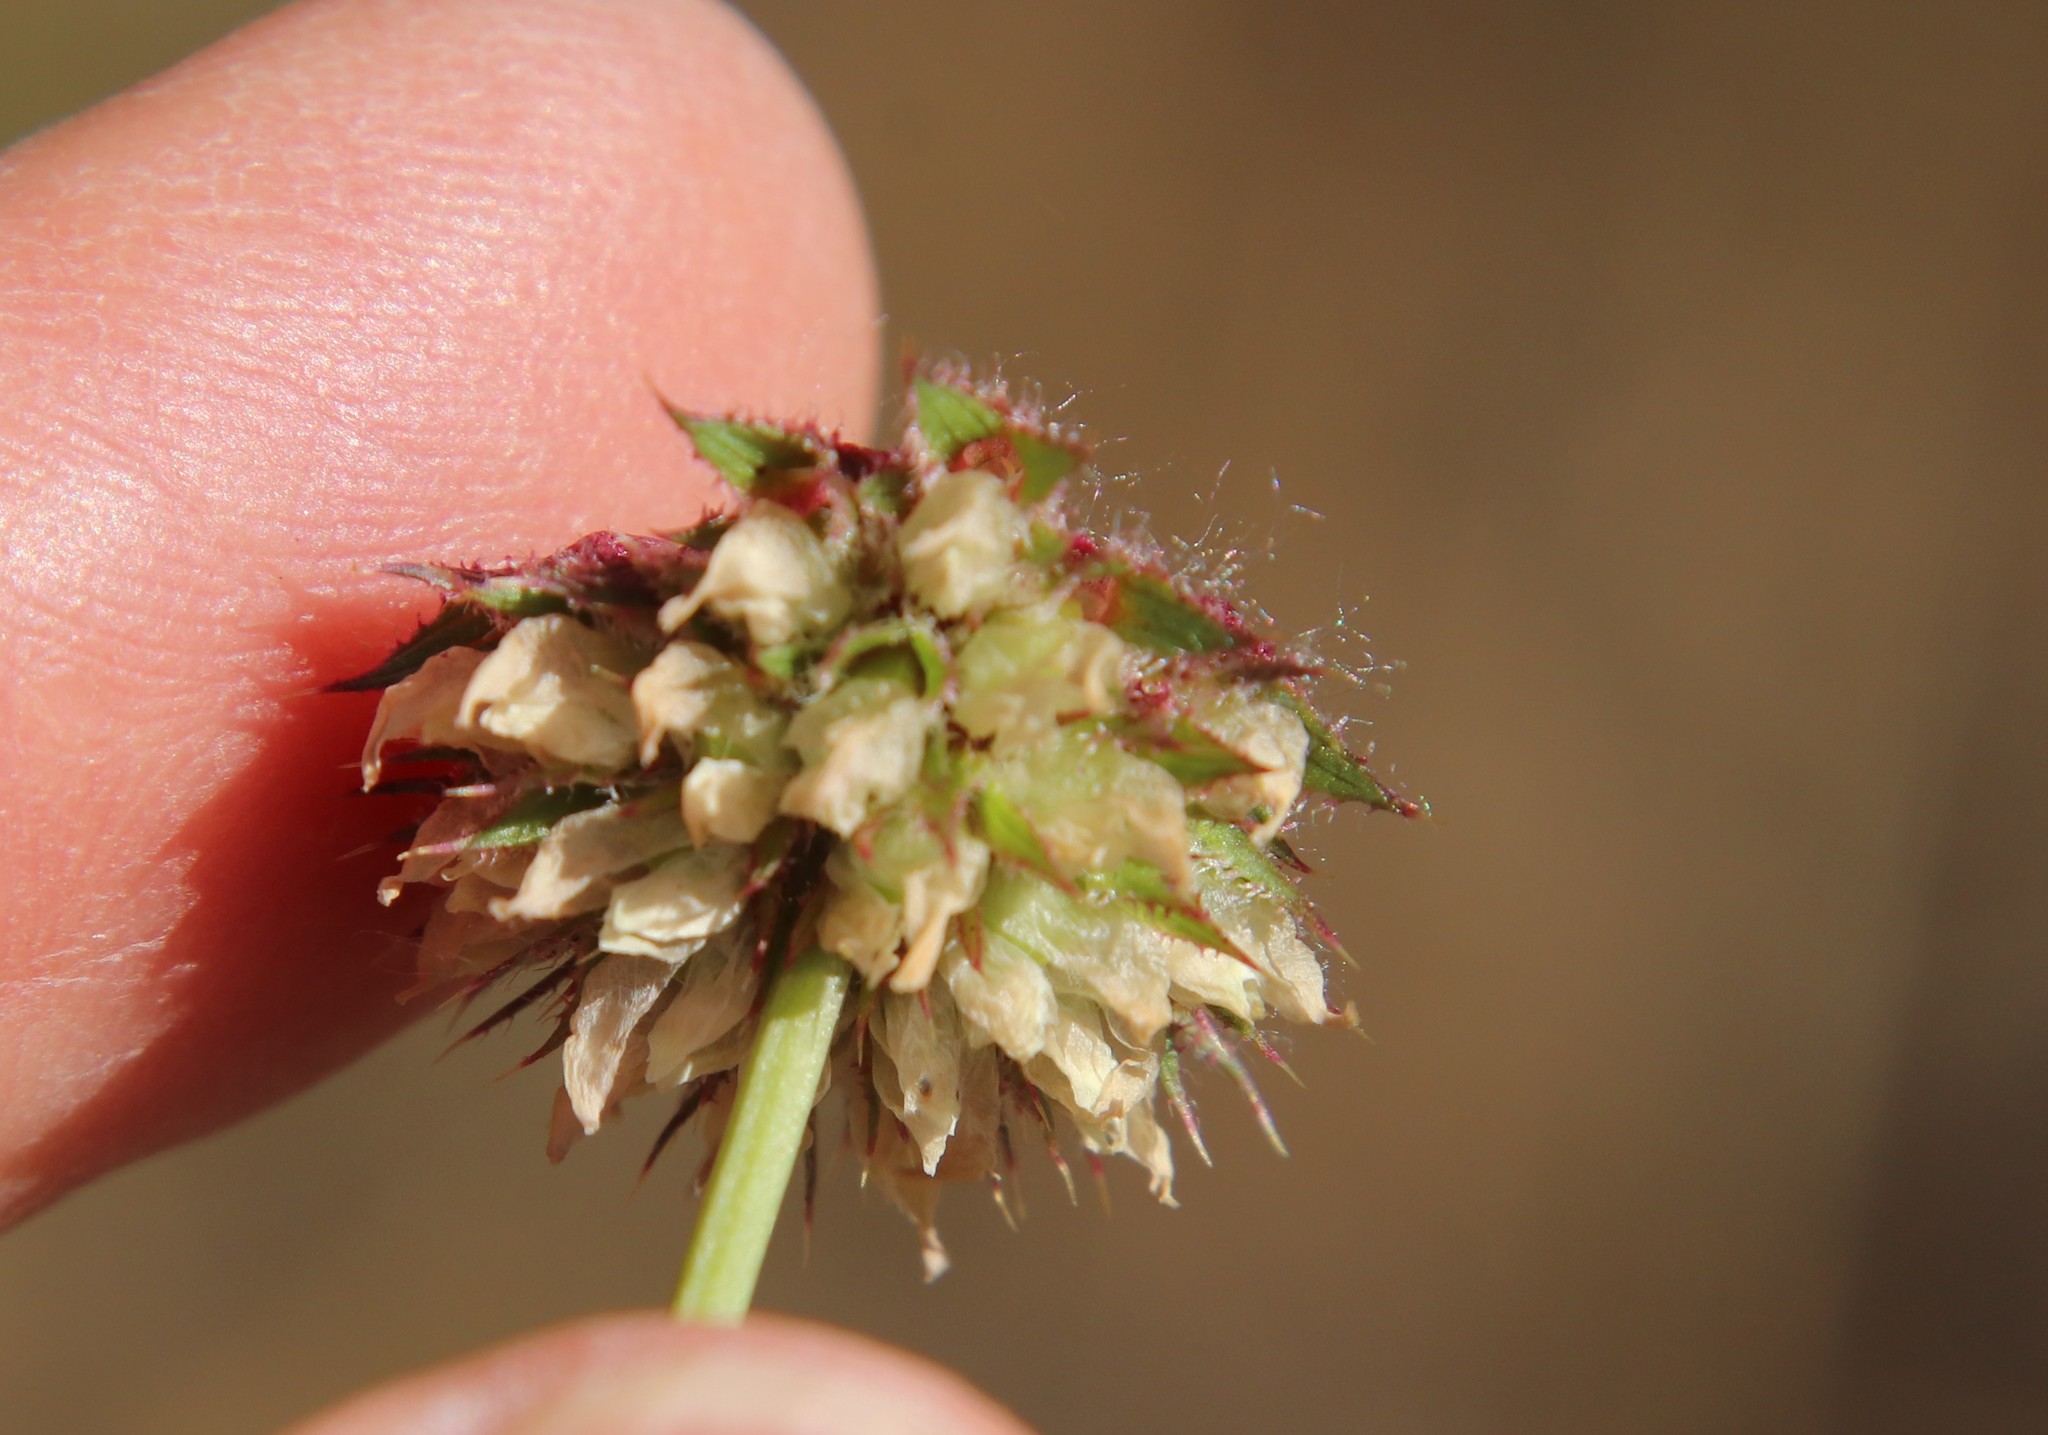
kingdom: Plantae
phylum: Tracheophyta
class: Magnoliopsida
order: Fabales
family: Fabaceae
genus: Trifolium
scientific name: Trifolium ciliolatum
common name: Foothill clover
